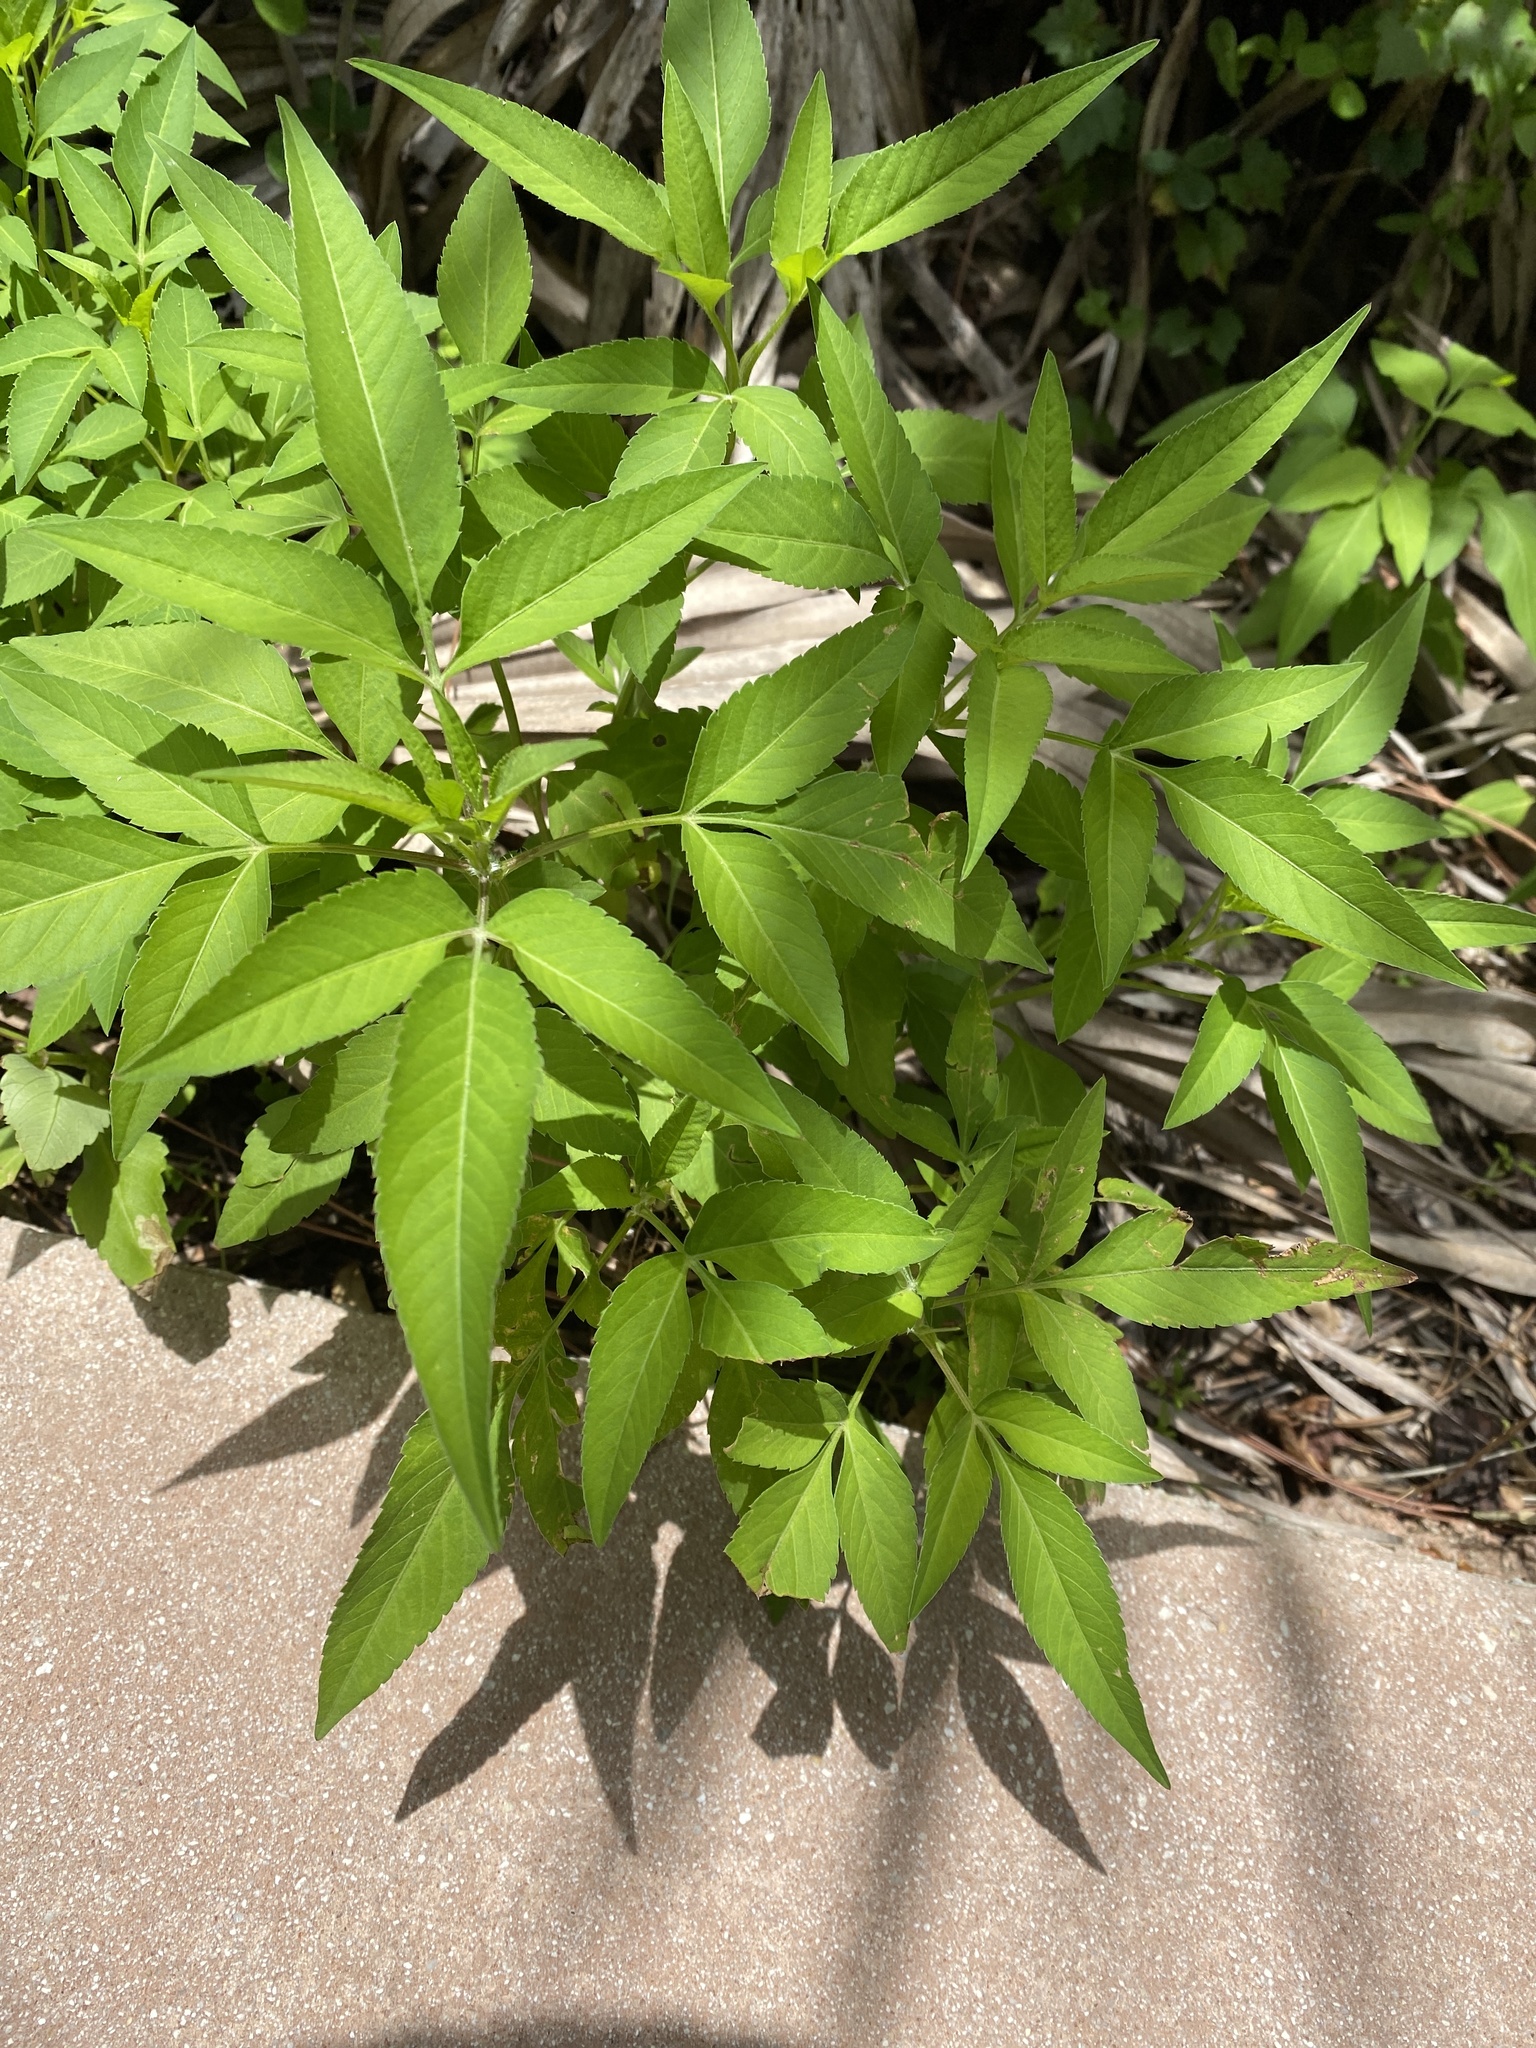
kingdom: Plantae
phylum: Tracheophyta
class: Magnoliopsida
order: Asterales
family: Asteraceae
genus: Bidens
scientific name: Bidens alba
